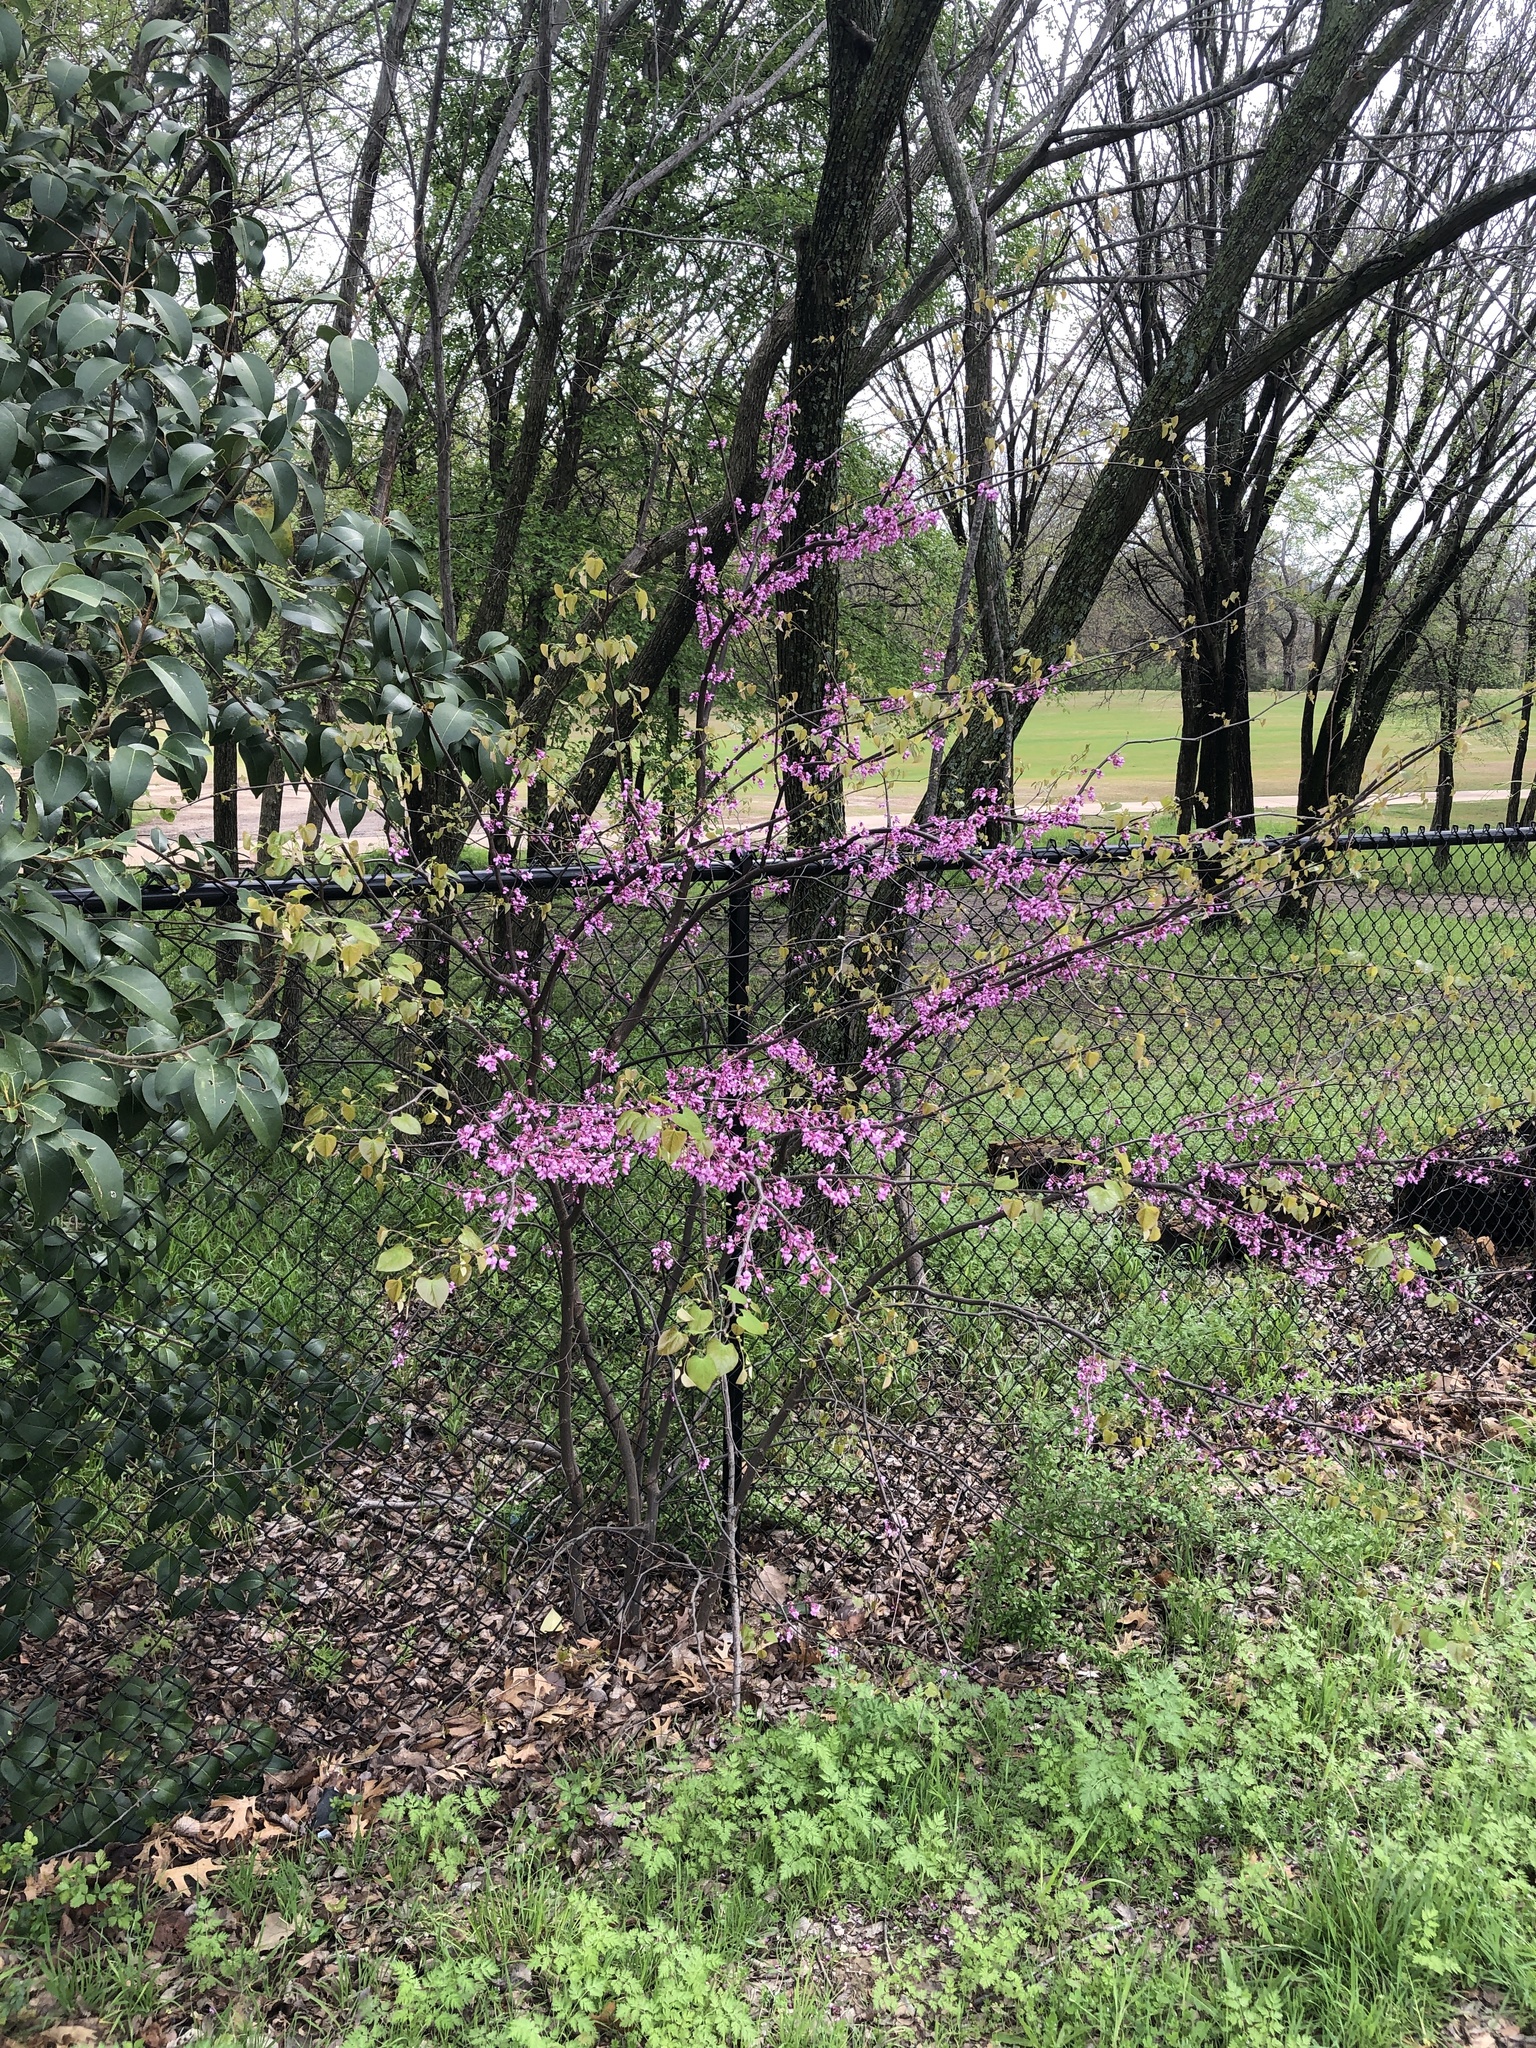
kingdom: Plantae
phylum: Tracheophyta
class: Magnoliopsida
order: Fabales
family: Fabaceae
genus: Cercis
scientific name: Cercis canadensis
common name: Eastern redbud
